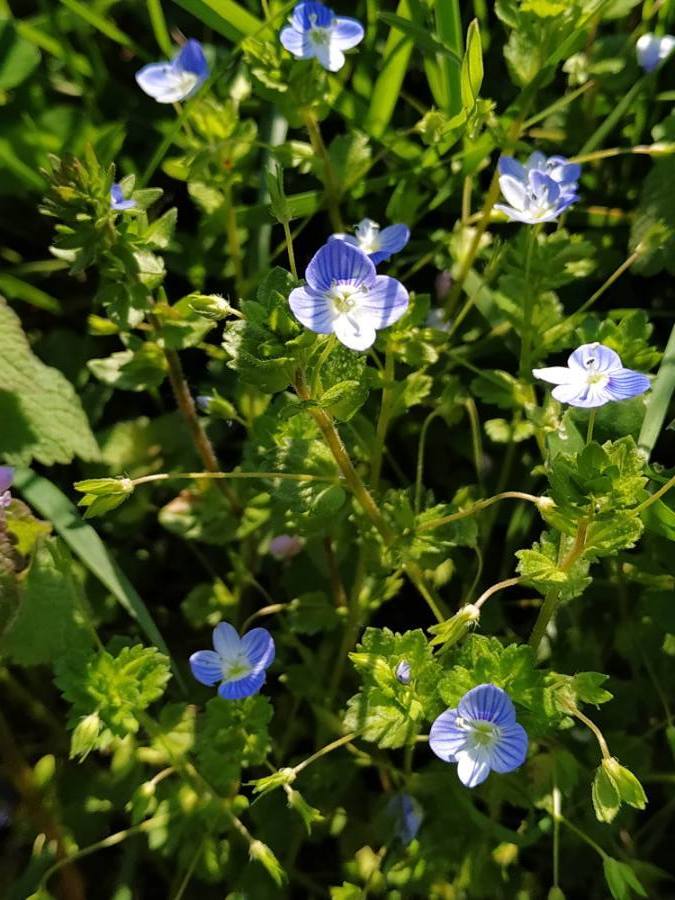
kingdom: Plantae
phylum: Tracheophyta
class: Magnoliopsida
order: Lamiales
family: Plantaginaceae
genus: Veronica
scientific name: Veronica persica
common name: Common field-speedwell
